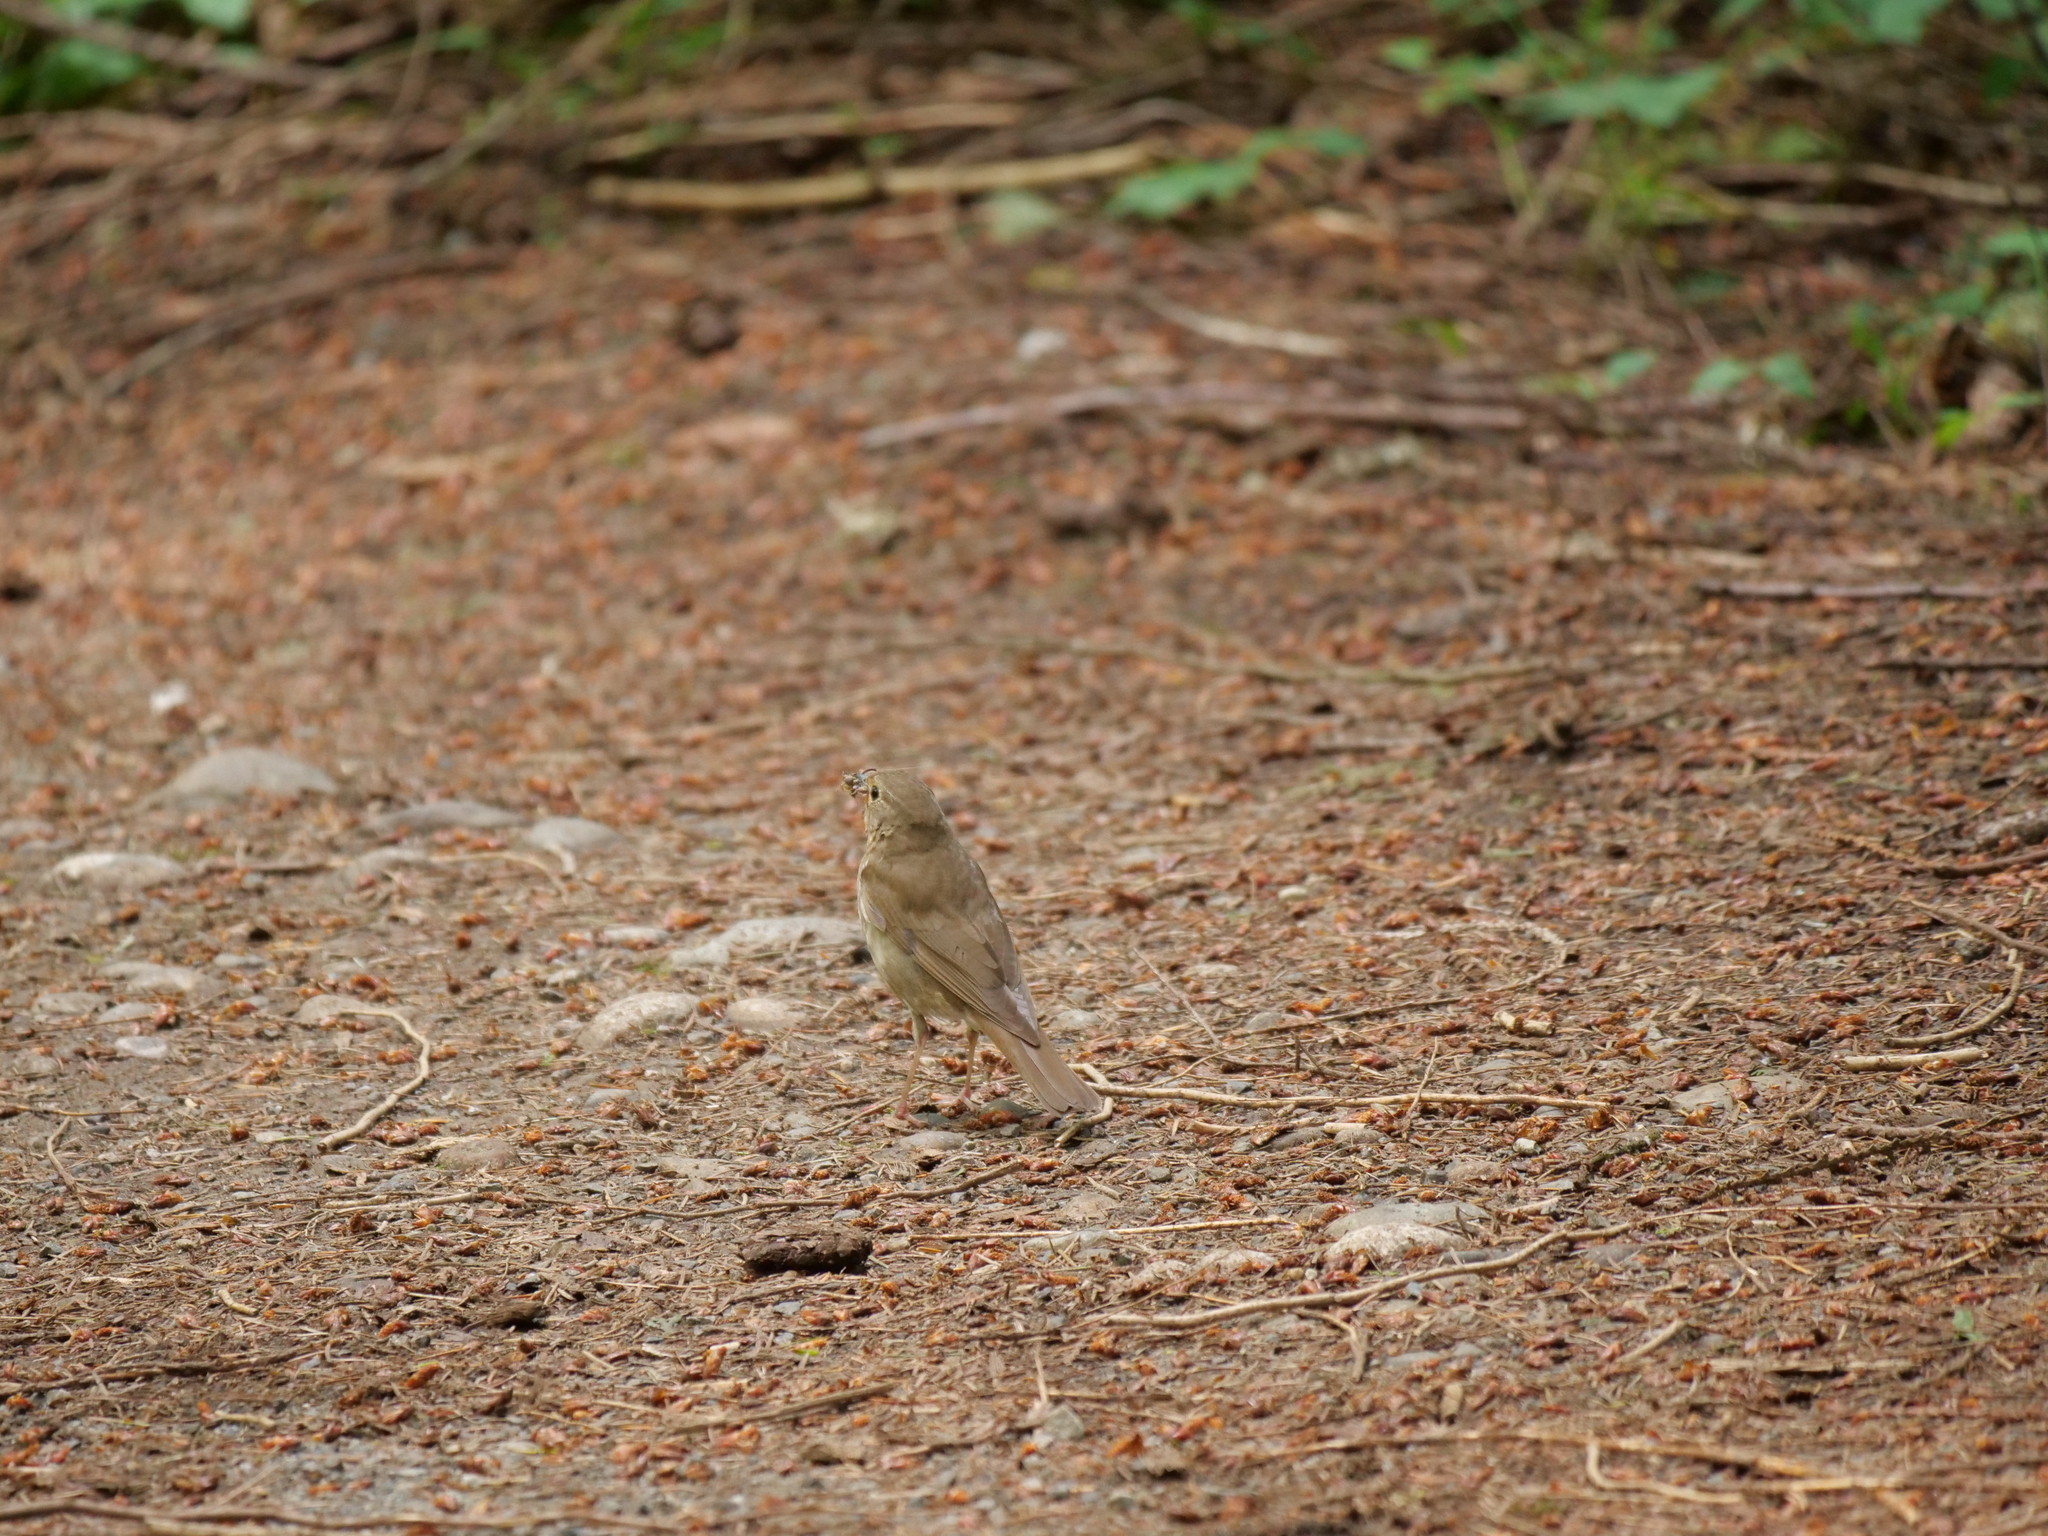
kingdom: Animalia
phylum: Chordata
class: Aves
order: Passeriformes
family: Turdidae
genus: Catharus
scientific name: Catharus ustulatus
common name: Swainson's thrush
